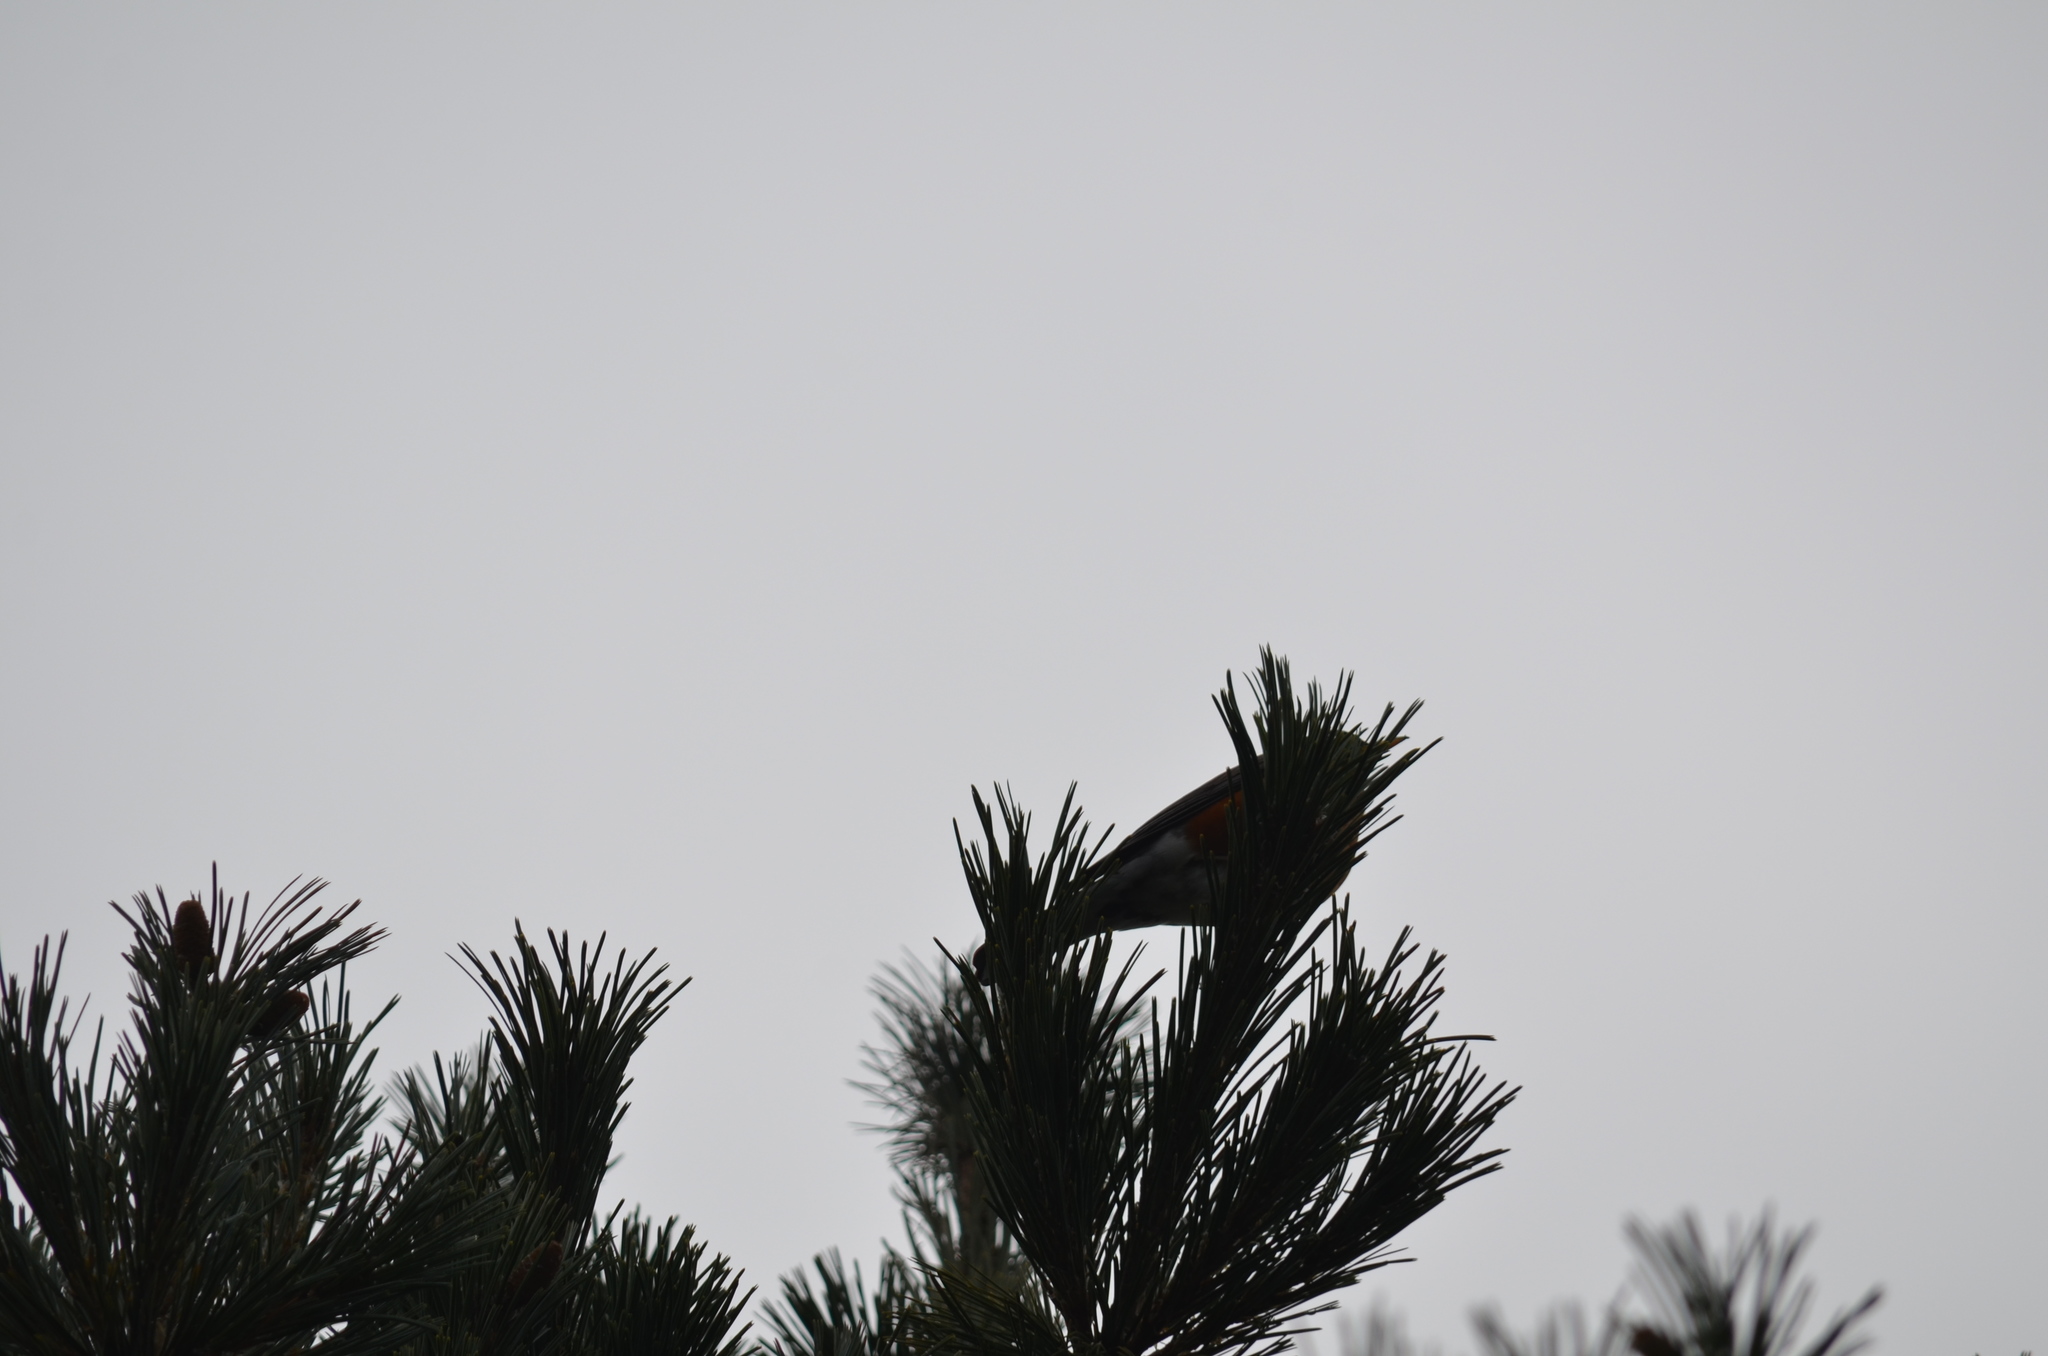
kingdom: Animalia
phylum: Chordata
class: Aves
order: Passeriformes
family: Turdidae
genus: Turdus
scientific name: Turdus migratorius
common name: American robin
